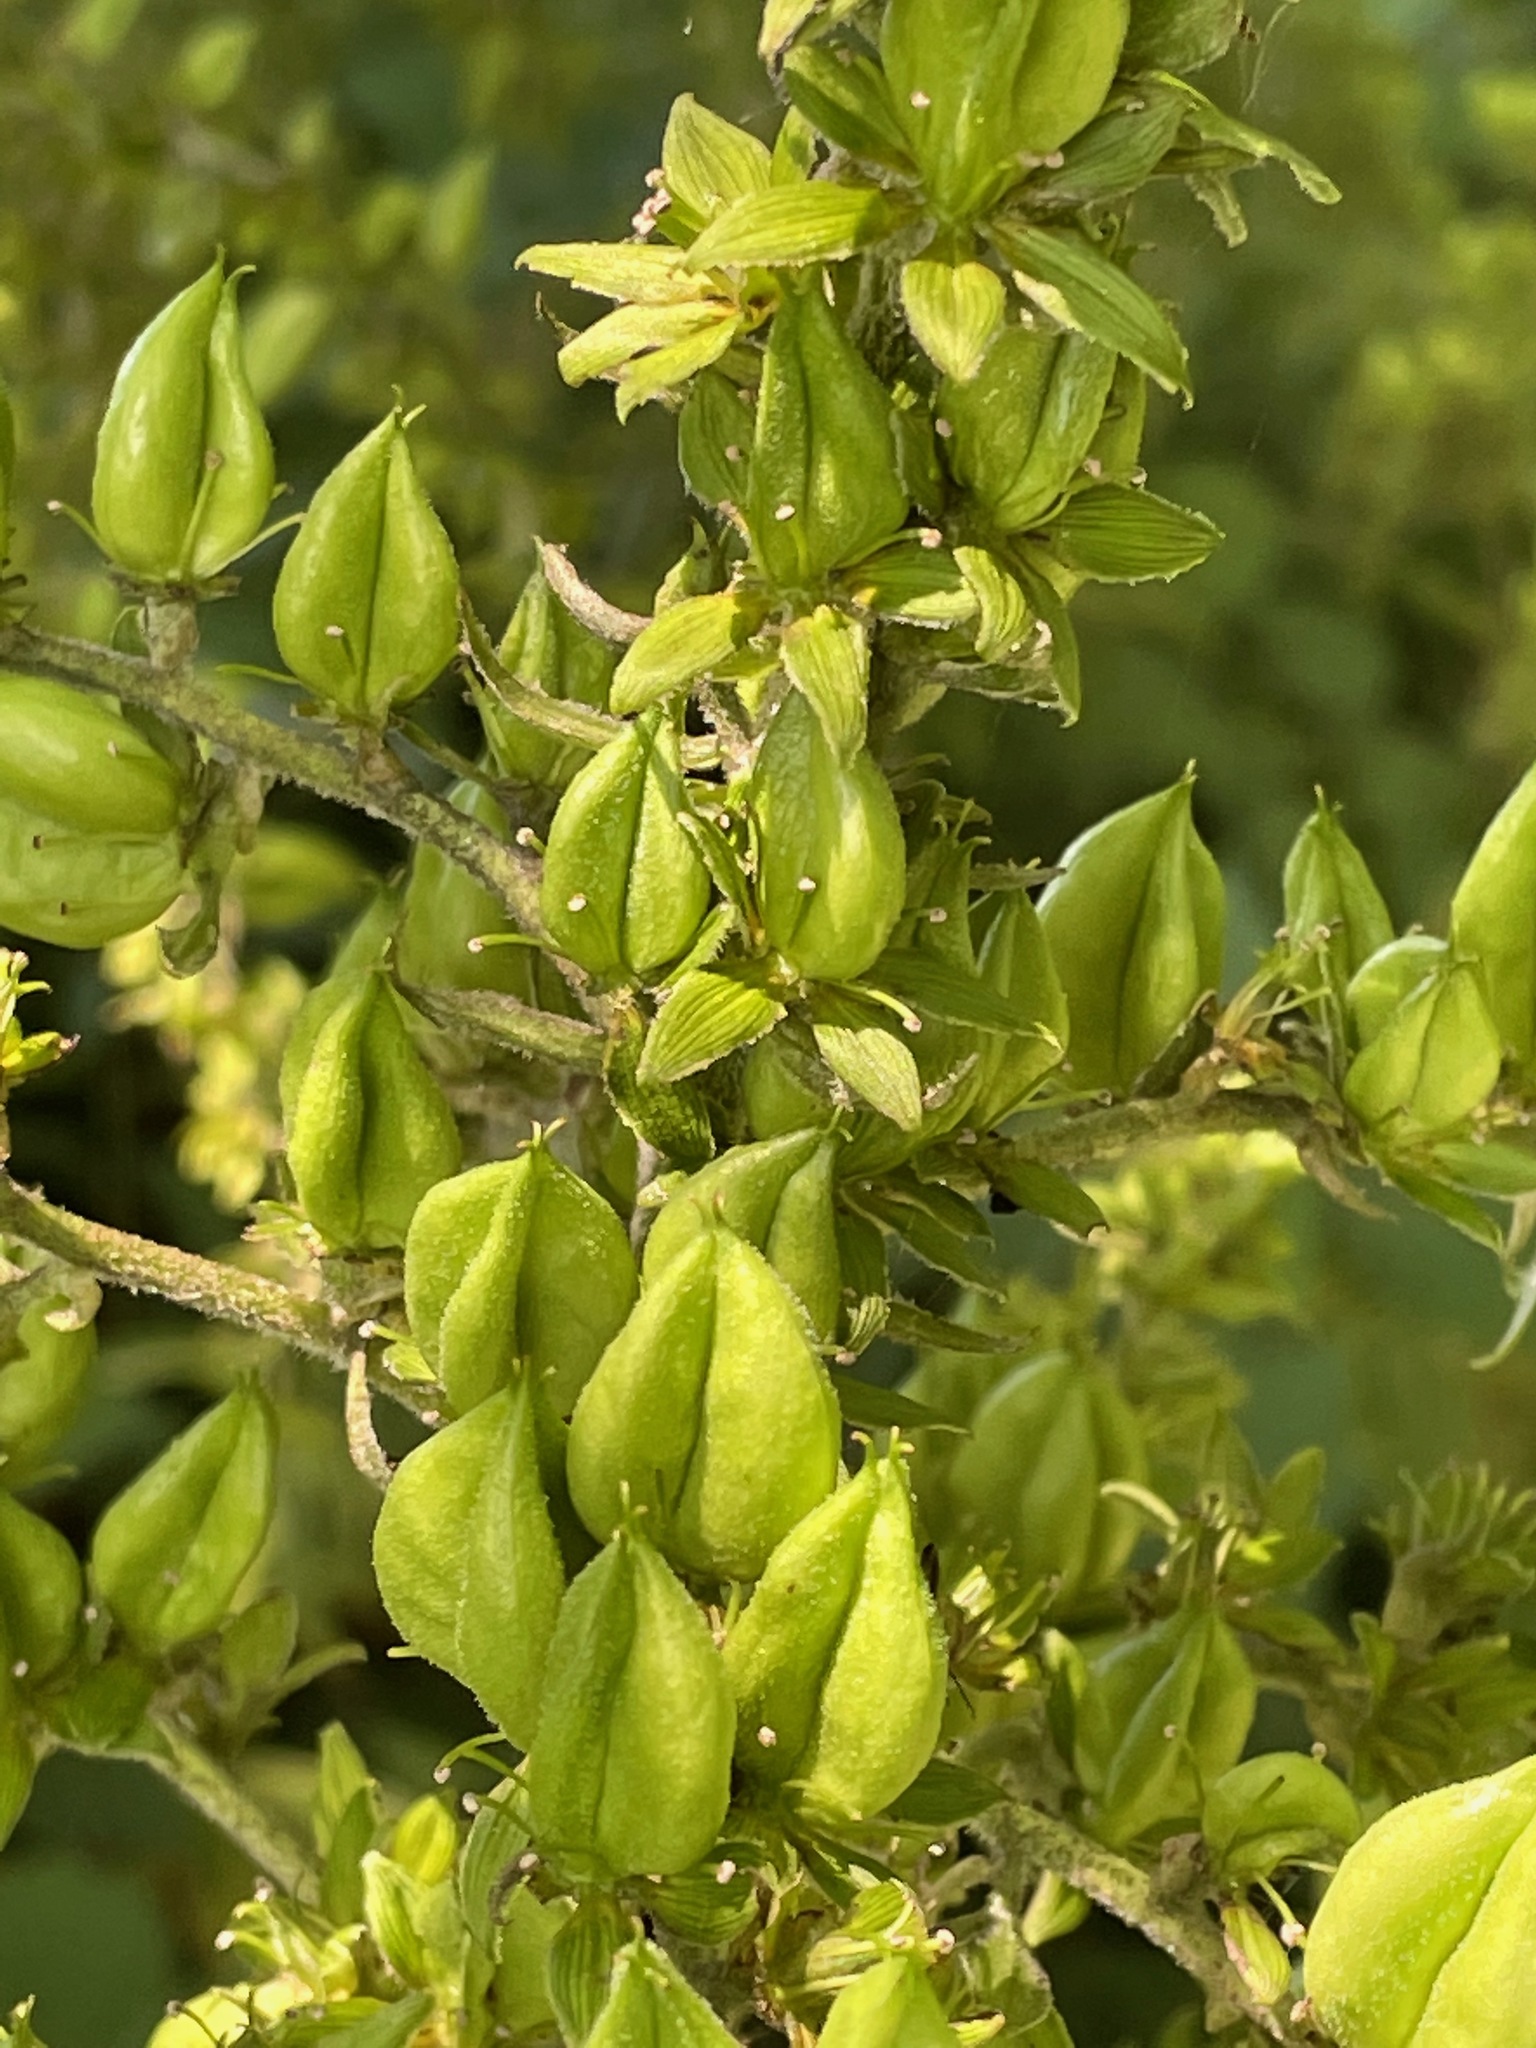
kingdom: Plantae
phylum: Tracheophyta
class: Liliopsida
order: Liliales
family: Melanthiaceae
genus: Veratrum
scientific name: Veratrum viride
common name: American false hellebore
